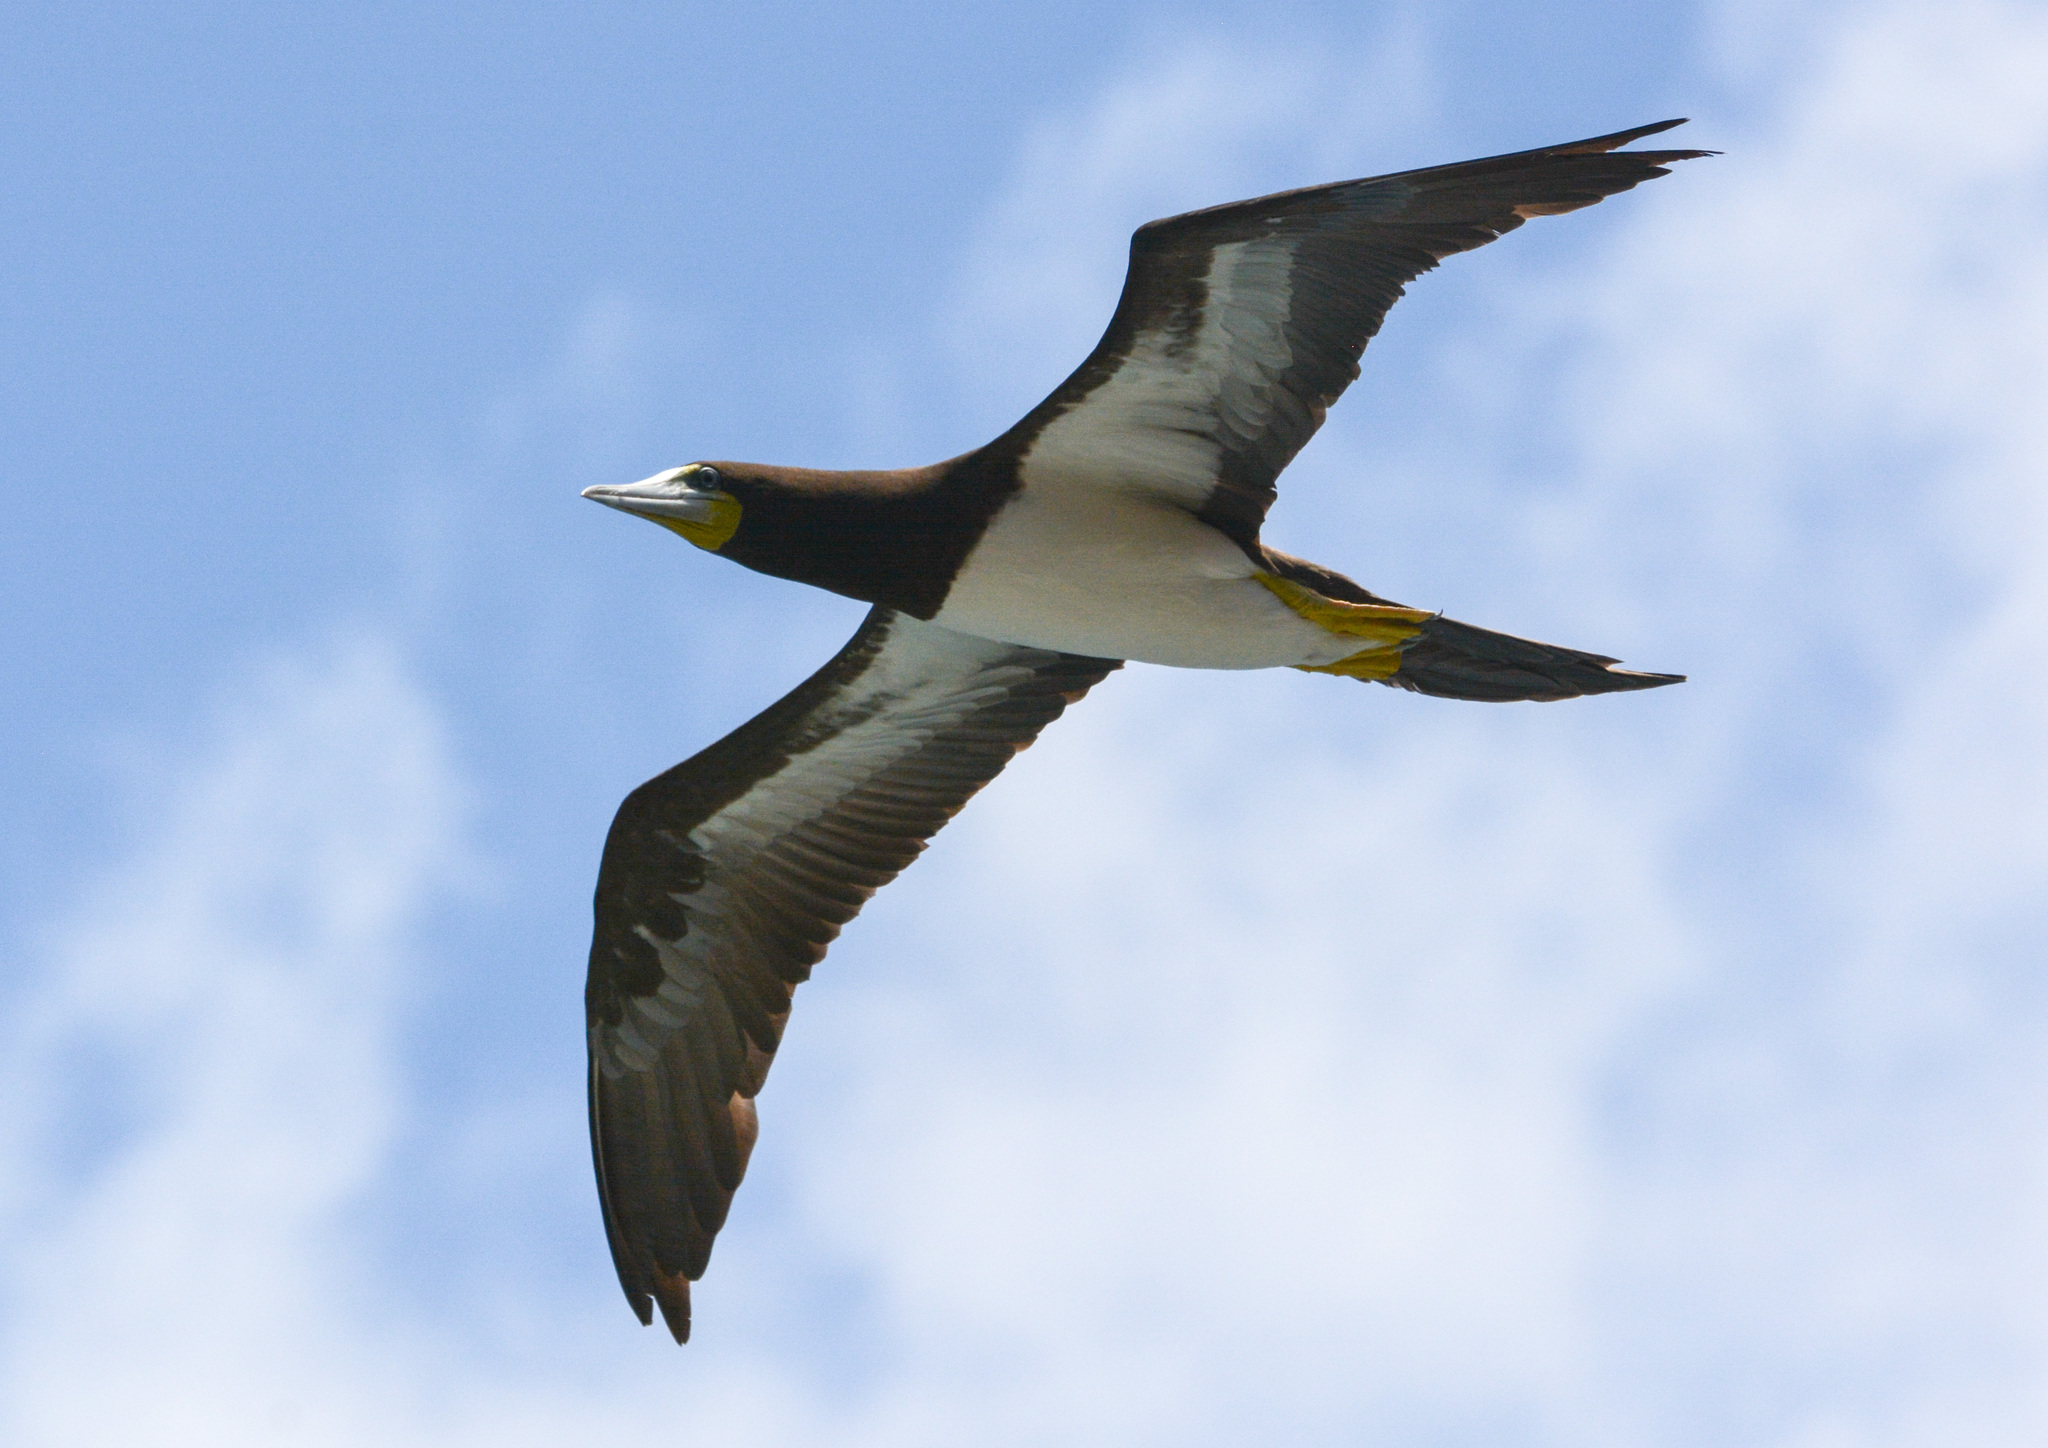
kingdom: Animalia
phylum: Chordata
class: Aves
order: Suliformes
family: Sulidae
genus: Sula
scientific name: Sula leucogaster
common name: Brown booby
